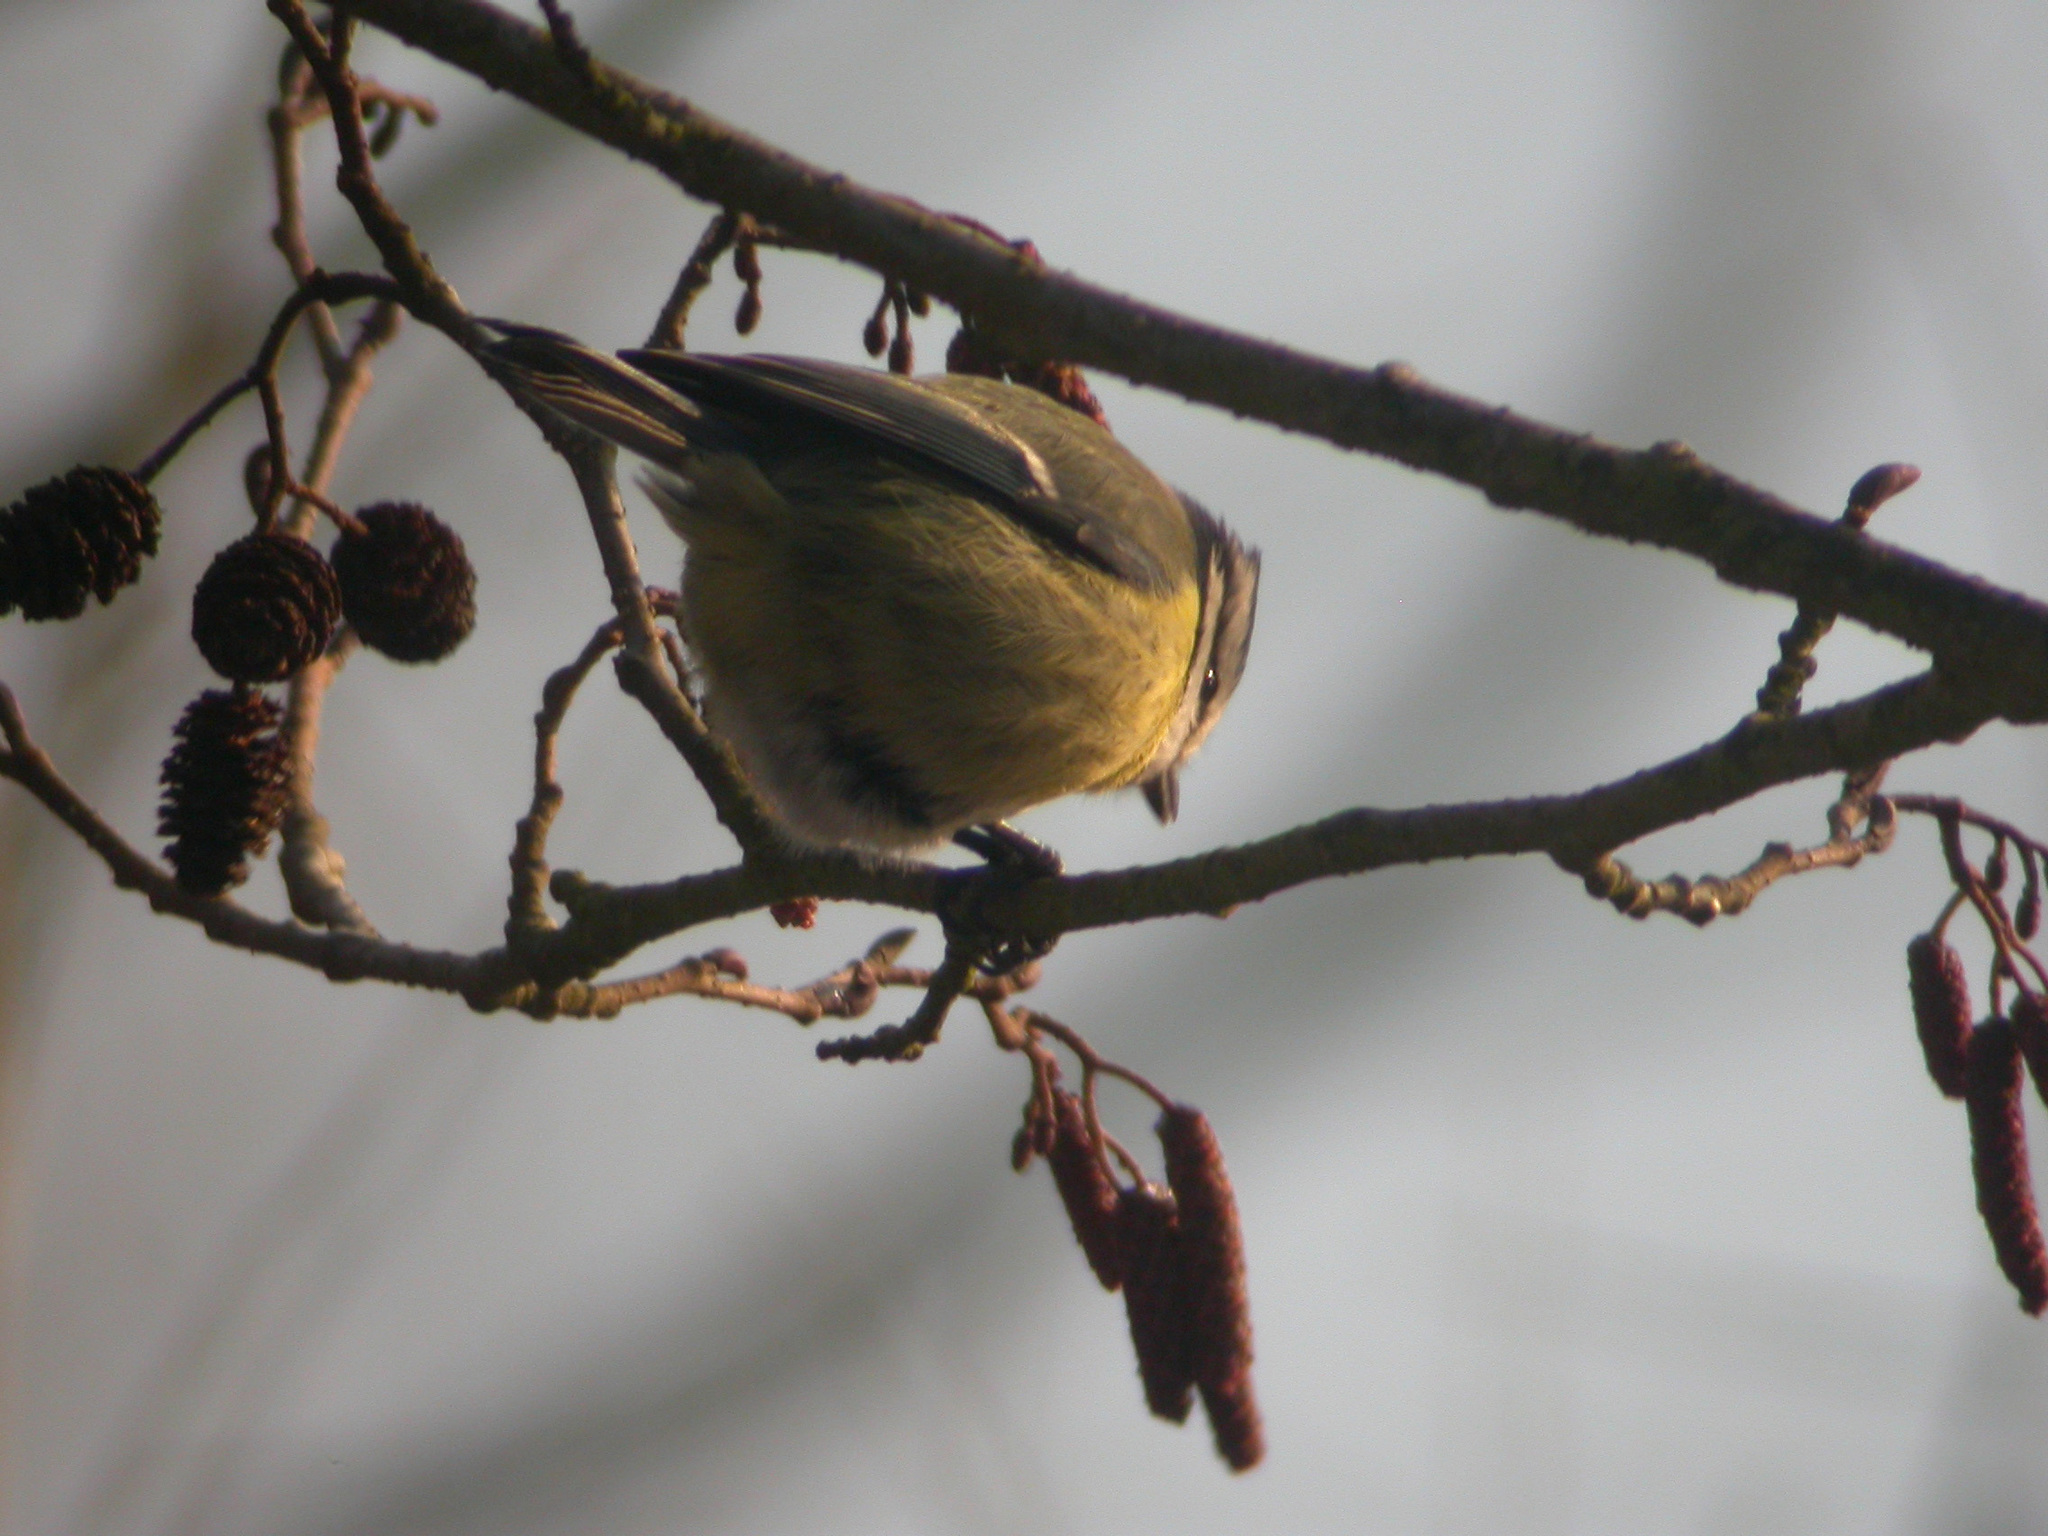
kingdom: Animalia
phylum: Chordata
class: Aves
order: Passeriformes
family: Paridae
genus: Cyanistes
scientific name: Cyanistes caeruleus
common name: Eurasian blue tit
